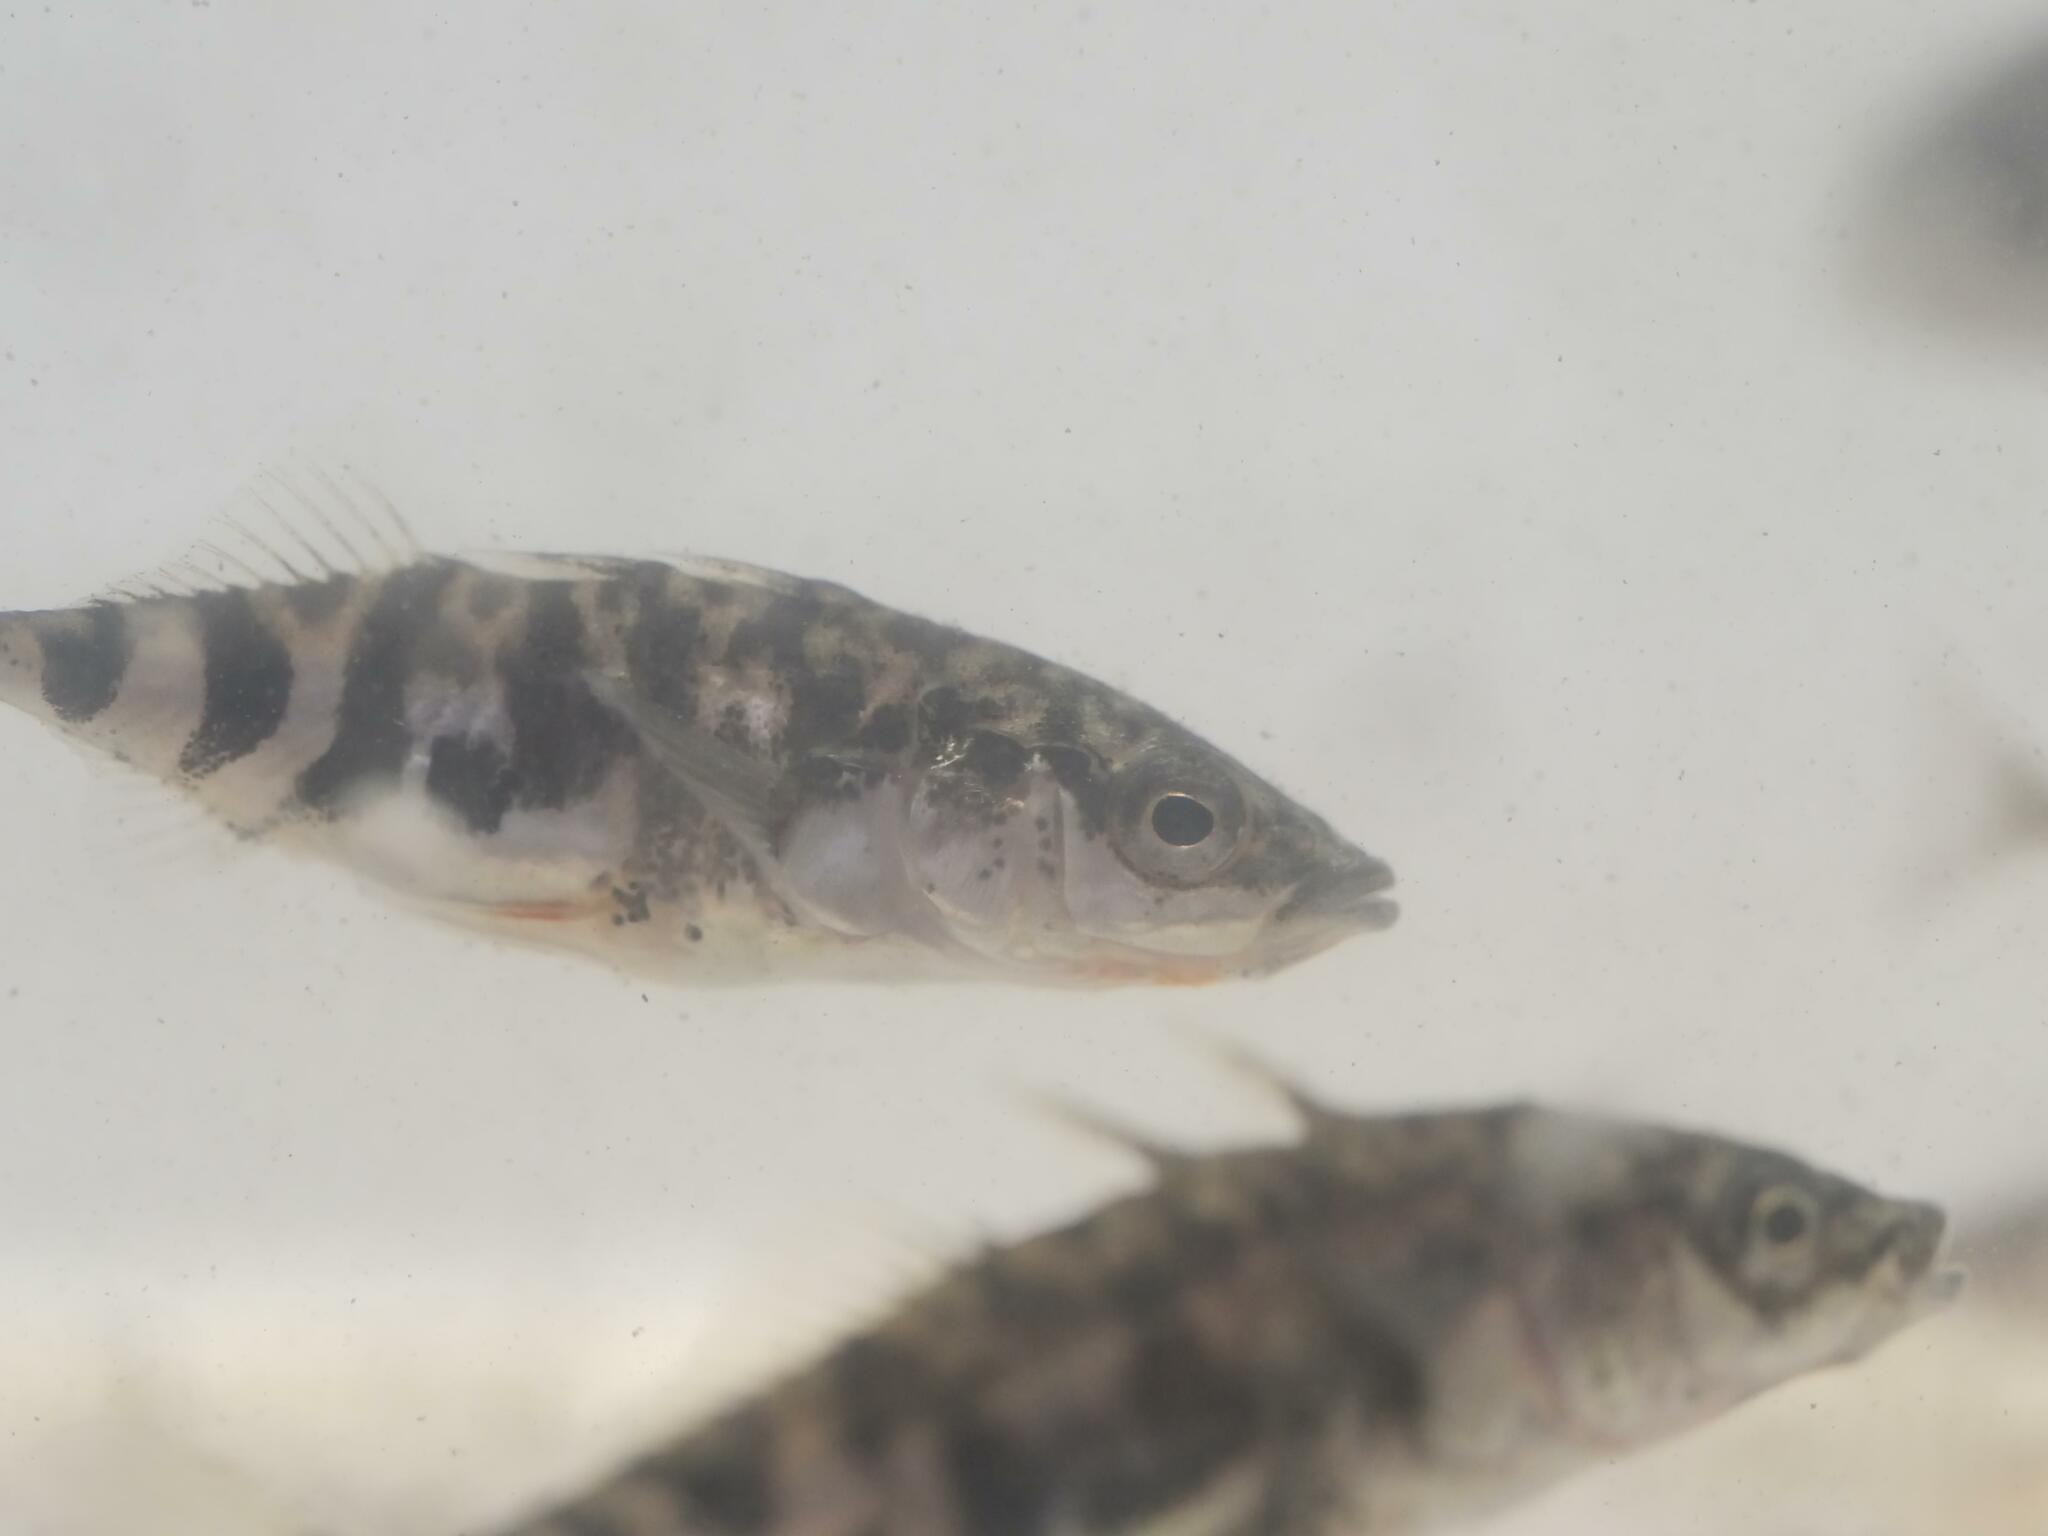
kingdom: Animalia
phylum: Chordata
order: Gasterosteiformes
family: Gasterosteidae
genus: Gasterosteus
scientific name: Gasterosteus aculeatus
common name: Three-spined stickleback
